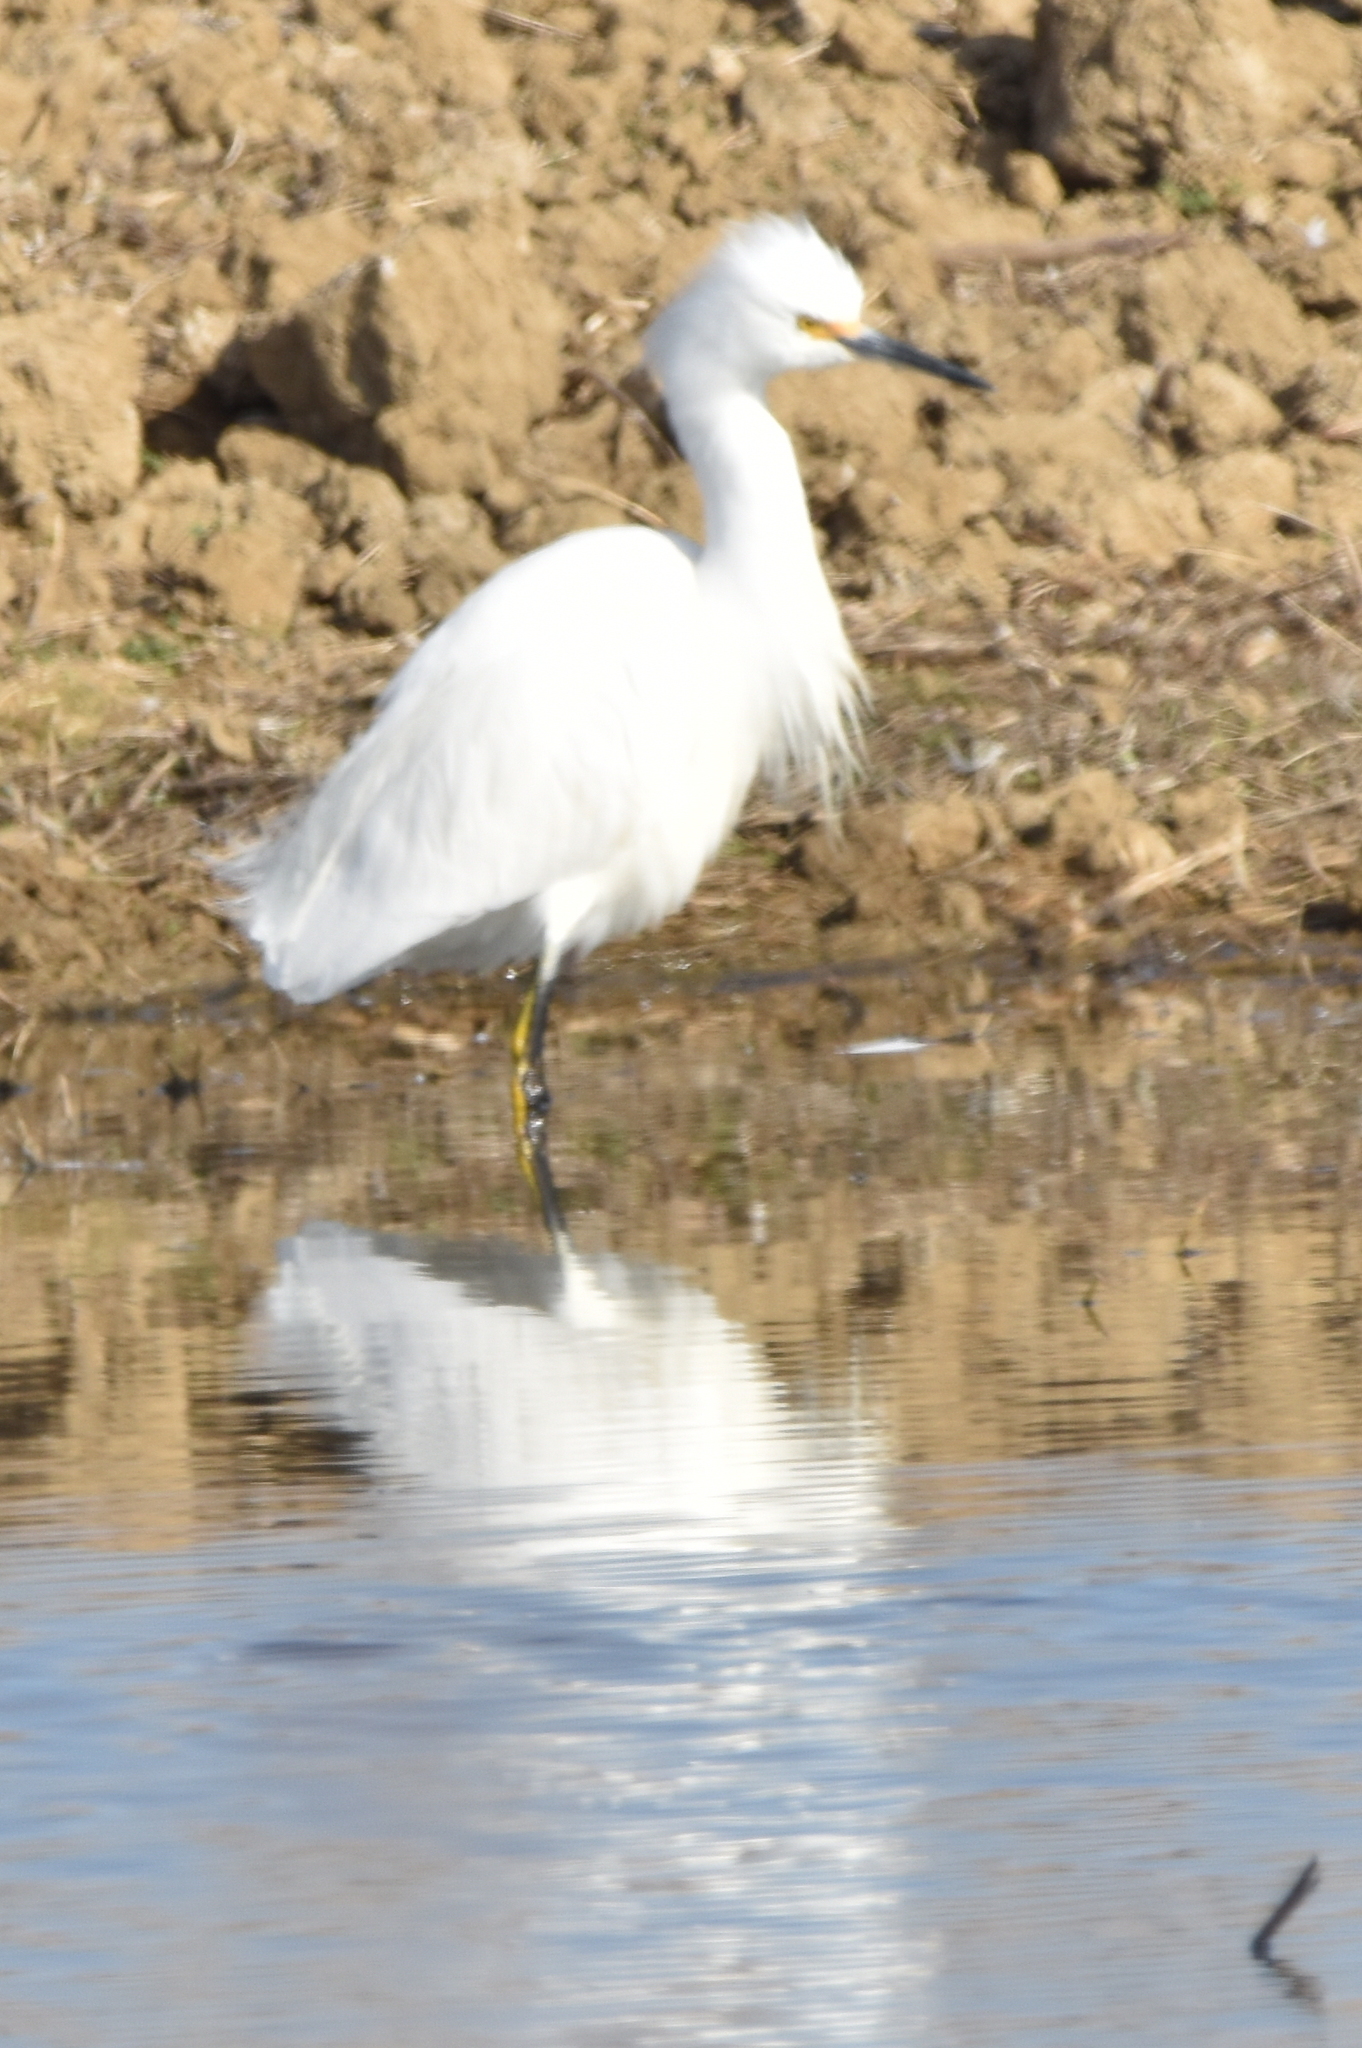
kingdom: Animalia
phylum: Chordata
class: Aves
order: Pelecaniformes
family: Ardeidae
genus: Egretta
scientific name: Egretta thula
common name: Snowy egret
